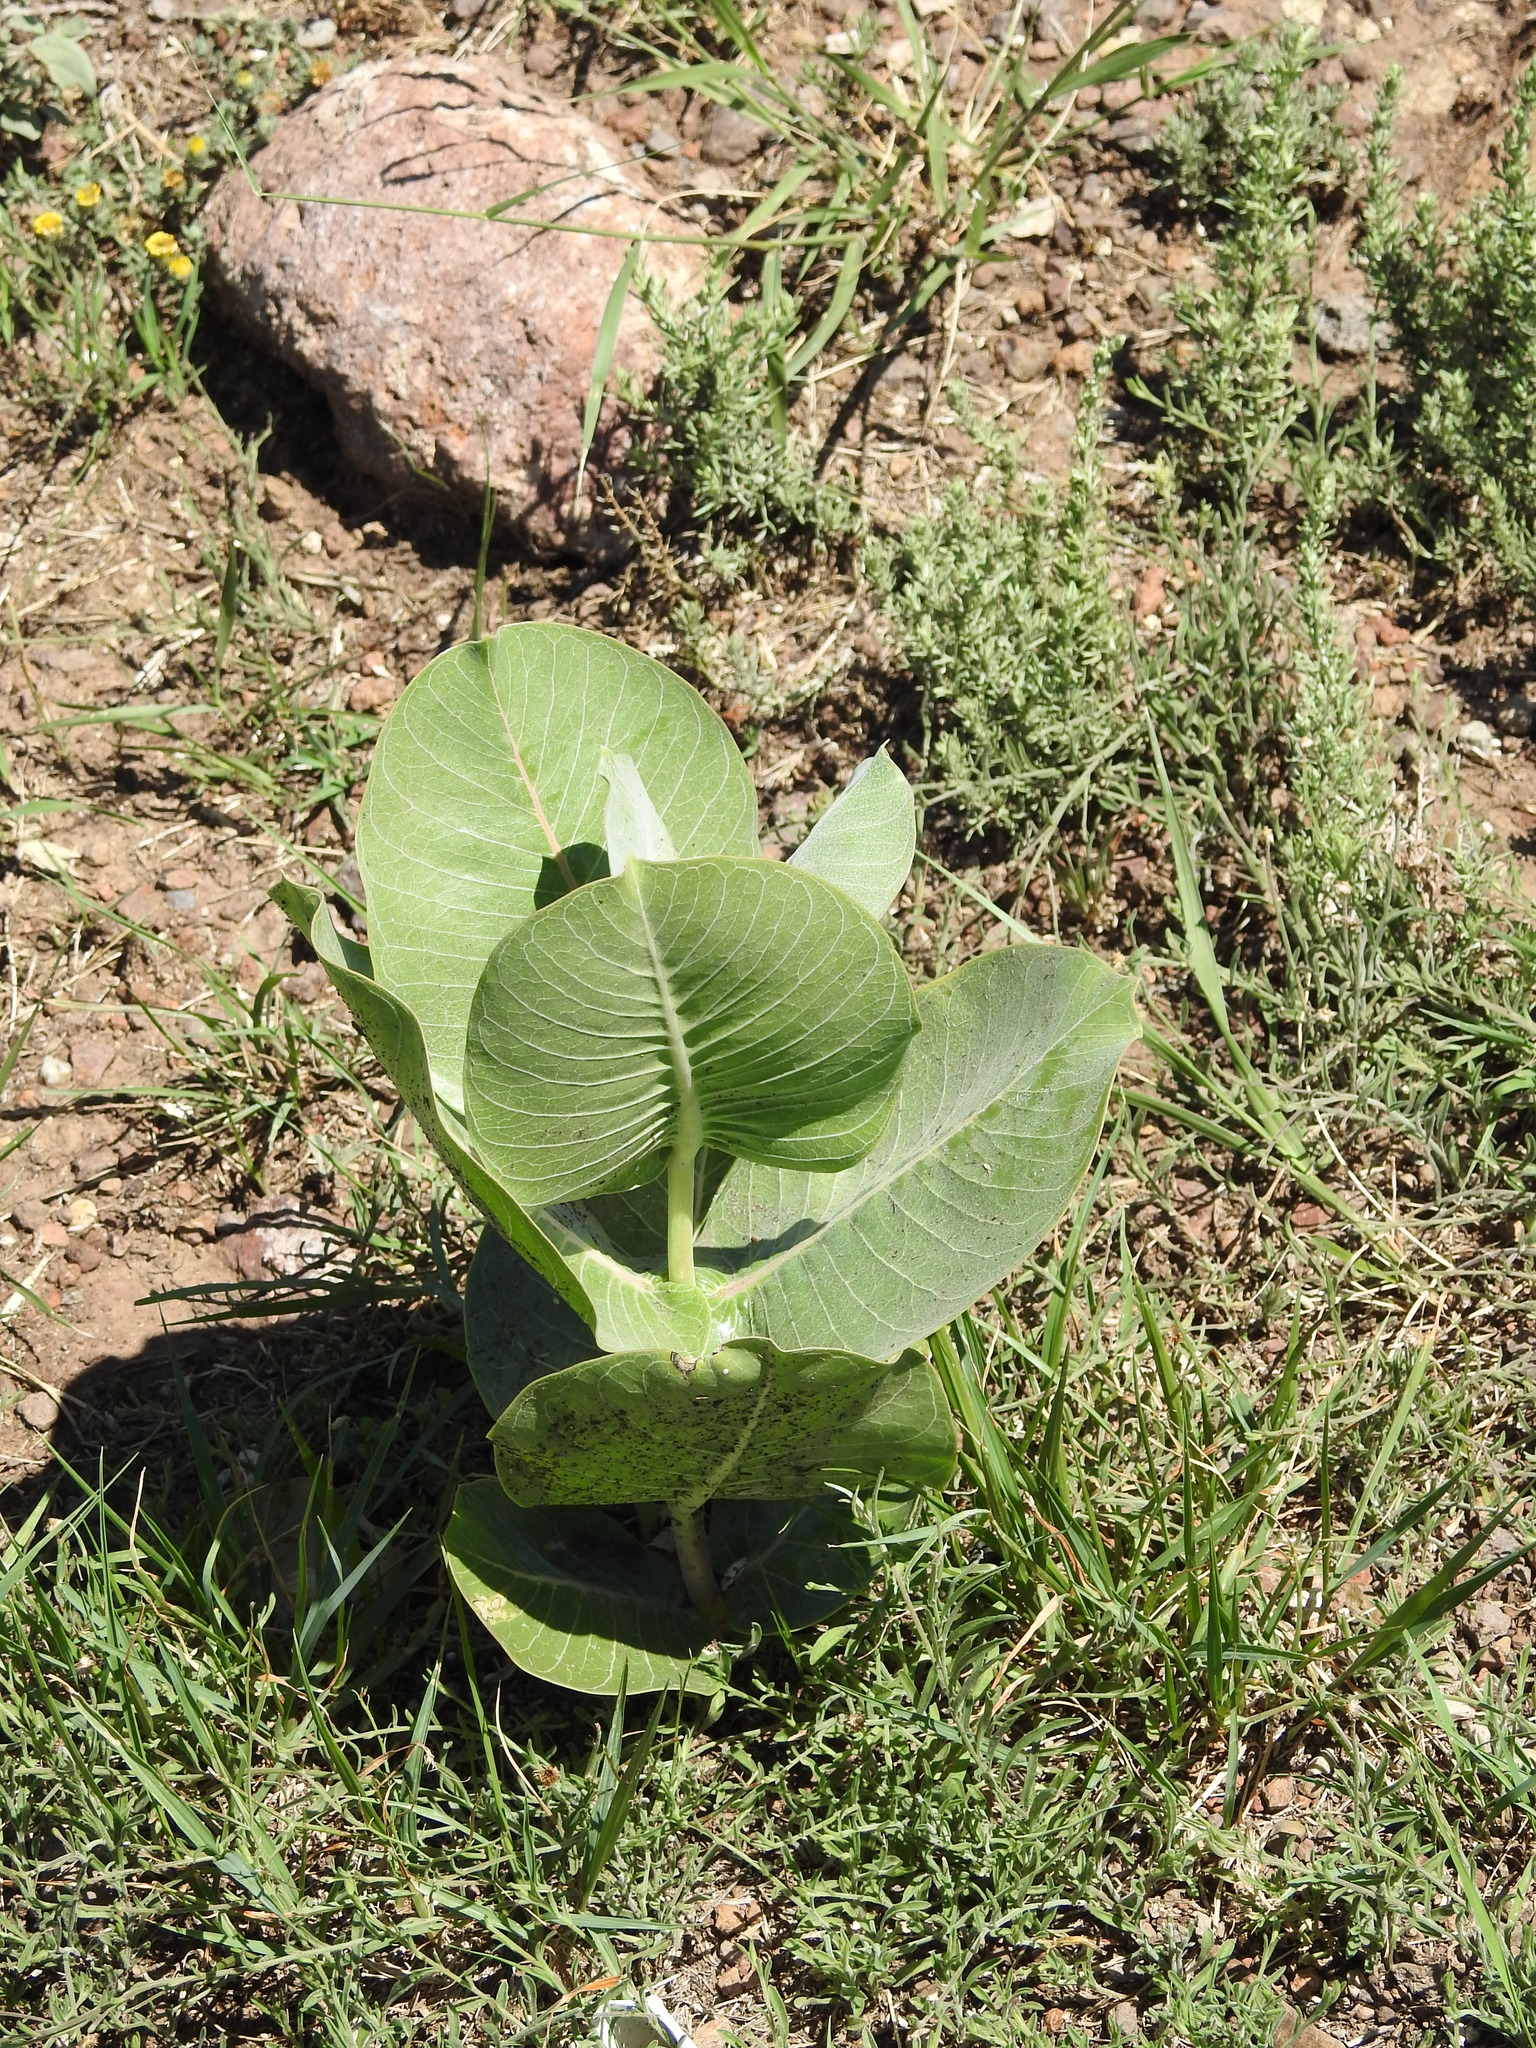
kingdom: Plantae
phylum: Tracheophyta
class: Magnoliopsida
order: Gentianales
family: Apocynaceae
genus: Asclepias
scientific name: Asclepias latifolia
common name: Broadleaf milkweed
